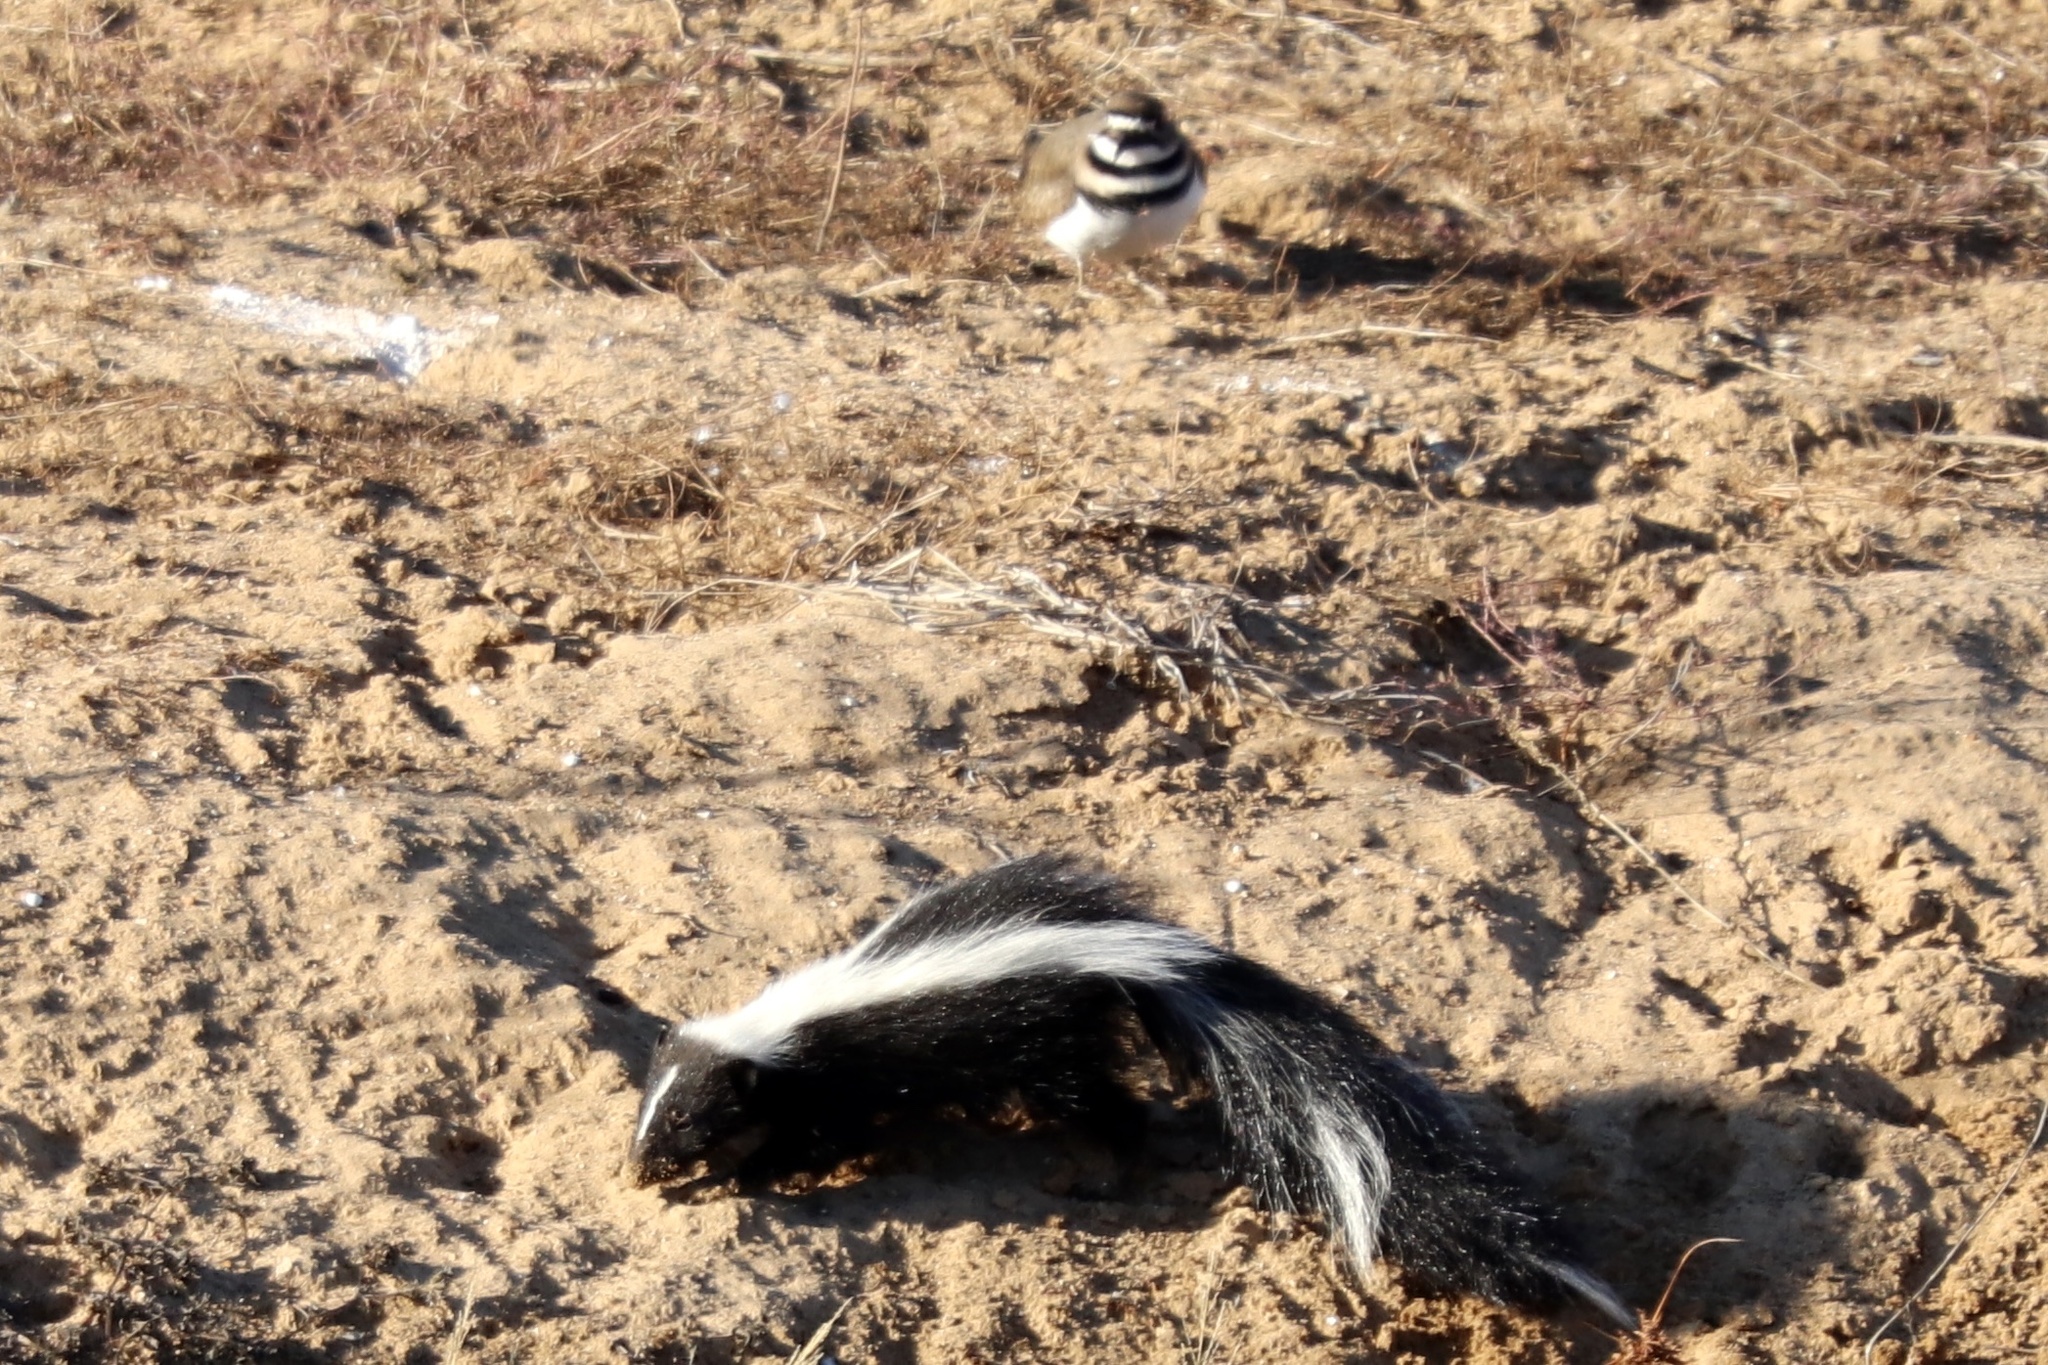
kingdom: Animalia
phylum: Chordata
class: Mammalia
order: Carnivora
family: Mephitidae
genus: Mephitis
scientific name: Mephitis mephitis
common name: Striped skunk
